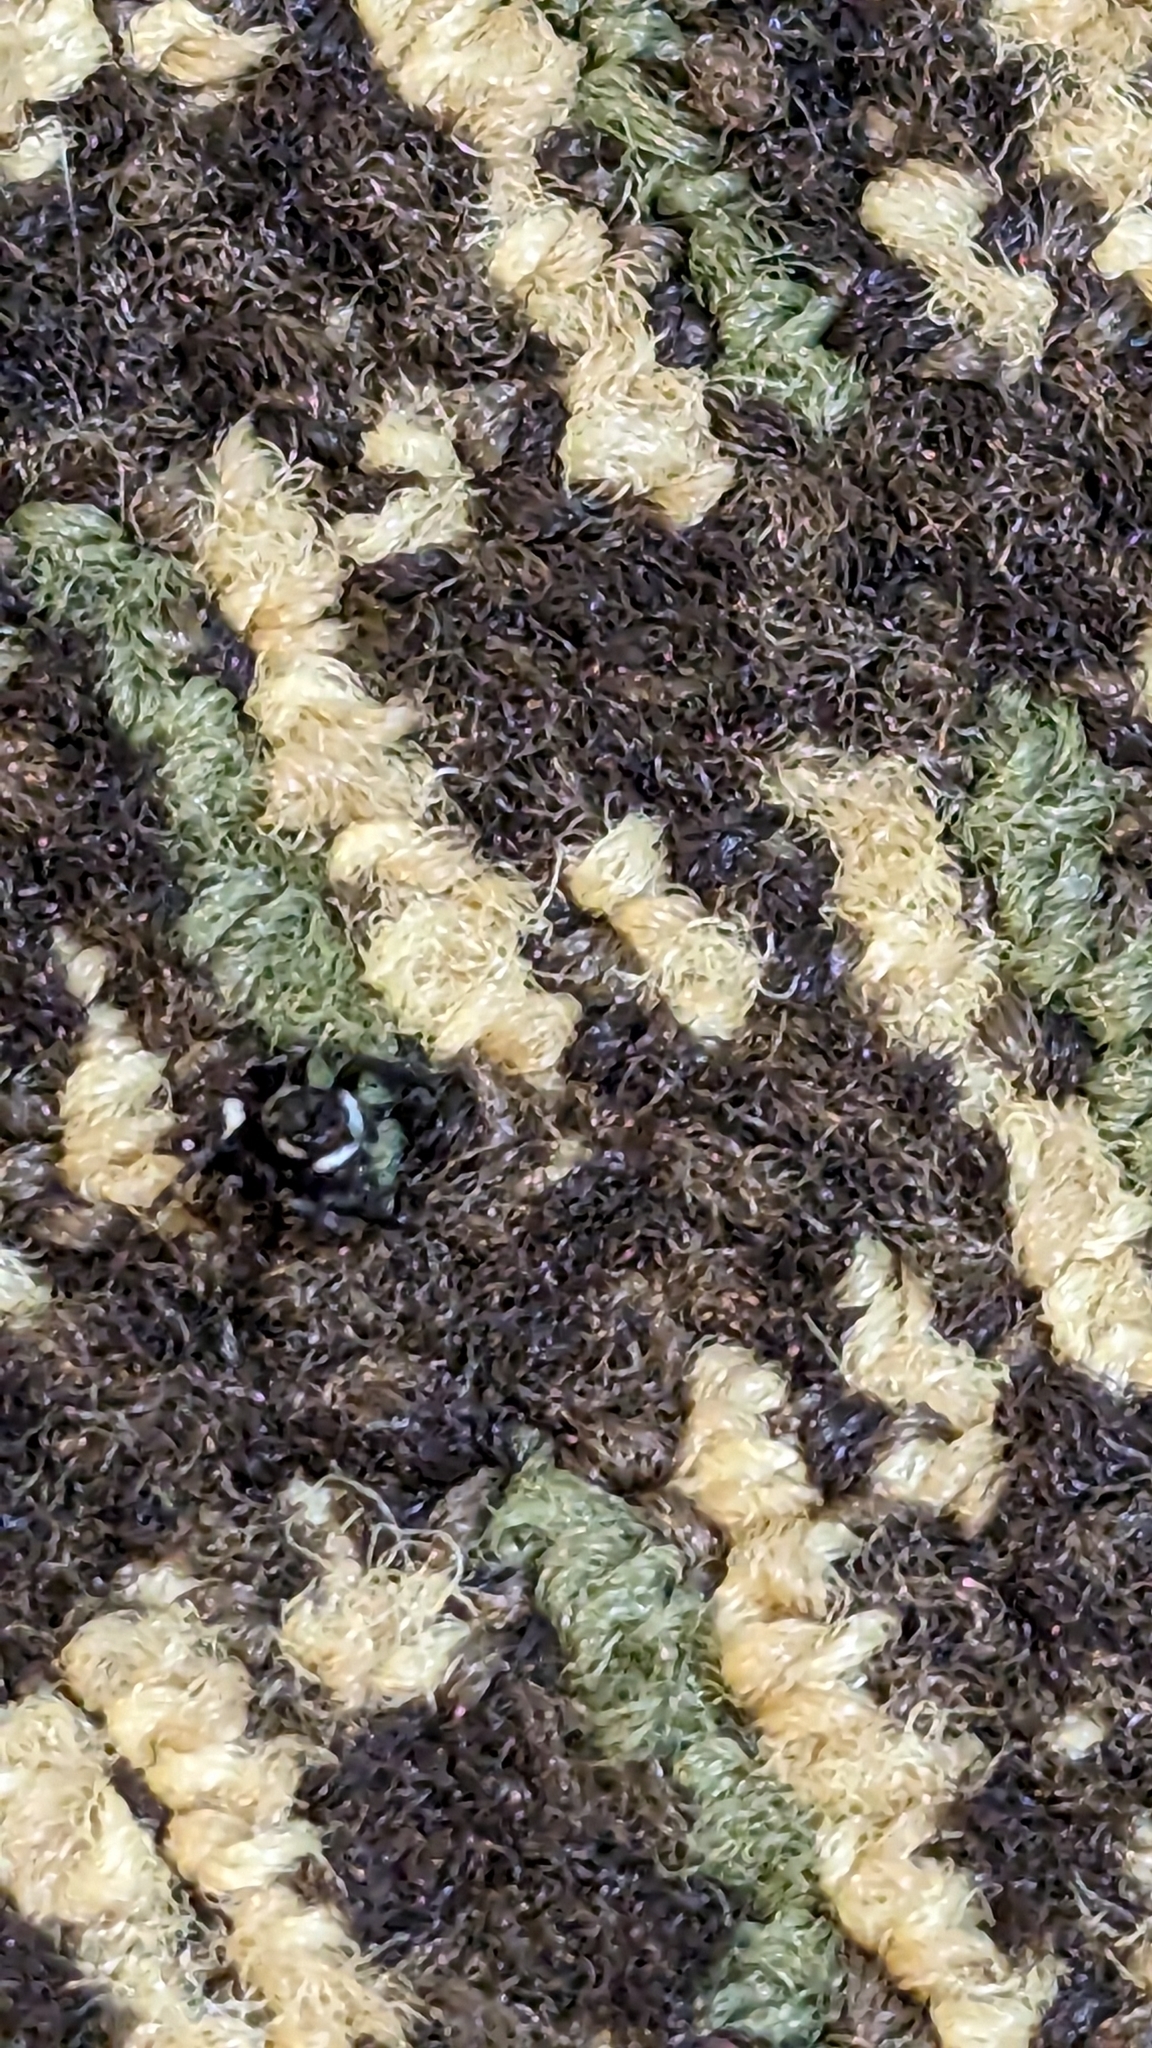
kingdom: Animalia
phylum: Arthropoda
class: Arachnida
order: Araneae
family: Salticidae
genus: Hasarius
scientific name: Hasarius adansoni
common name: Jumping spider
